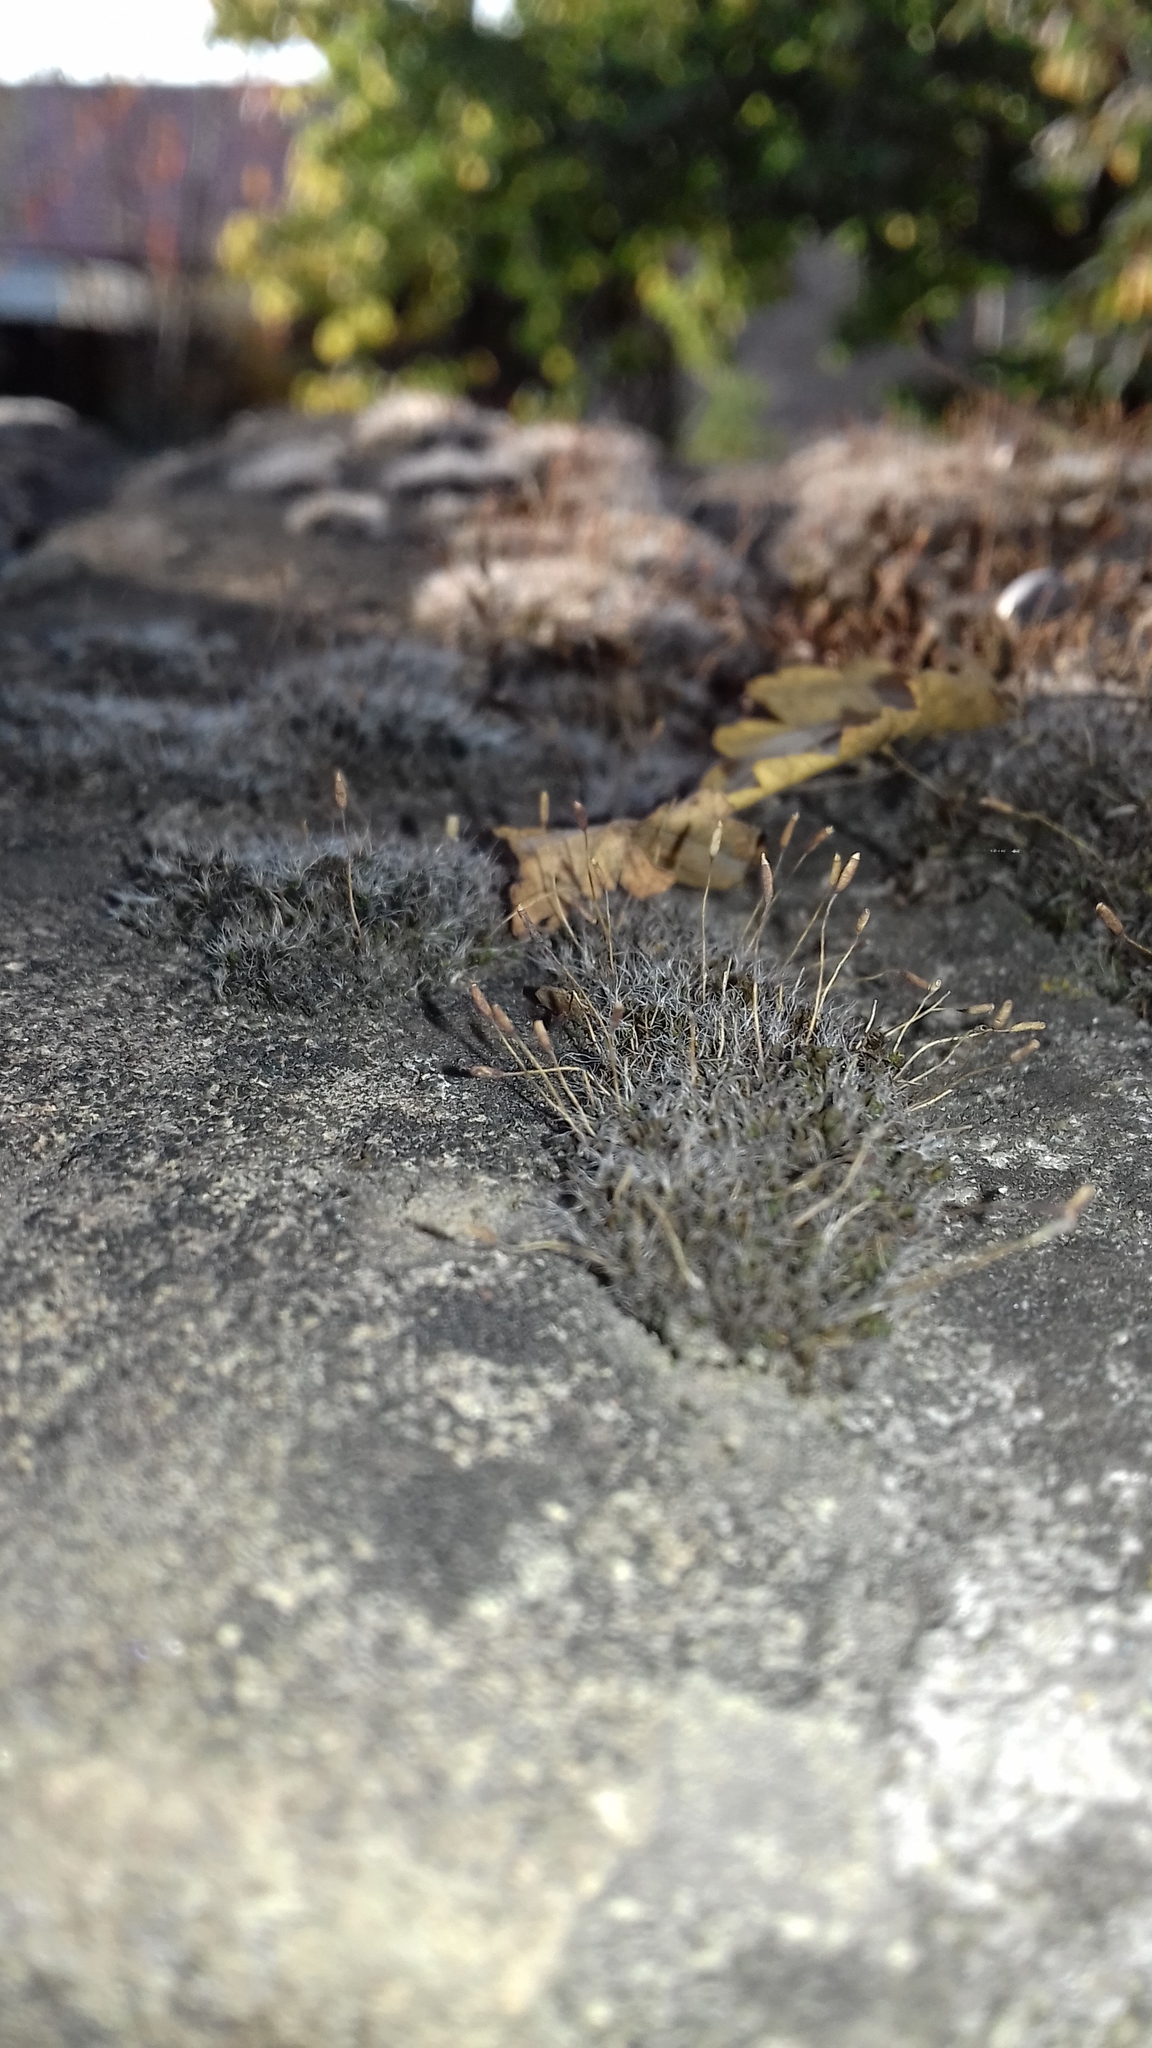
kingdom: Plantae
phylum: Bryophyta
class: Bryopsida
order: Pottiales
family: Pottiaceae
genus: Tortula
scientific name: Tortula muralis
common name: Wall screw-moss
